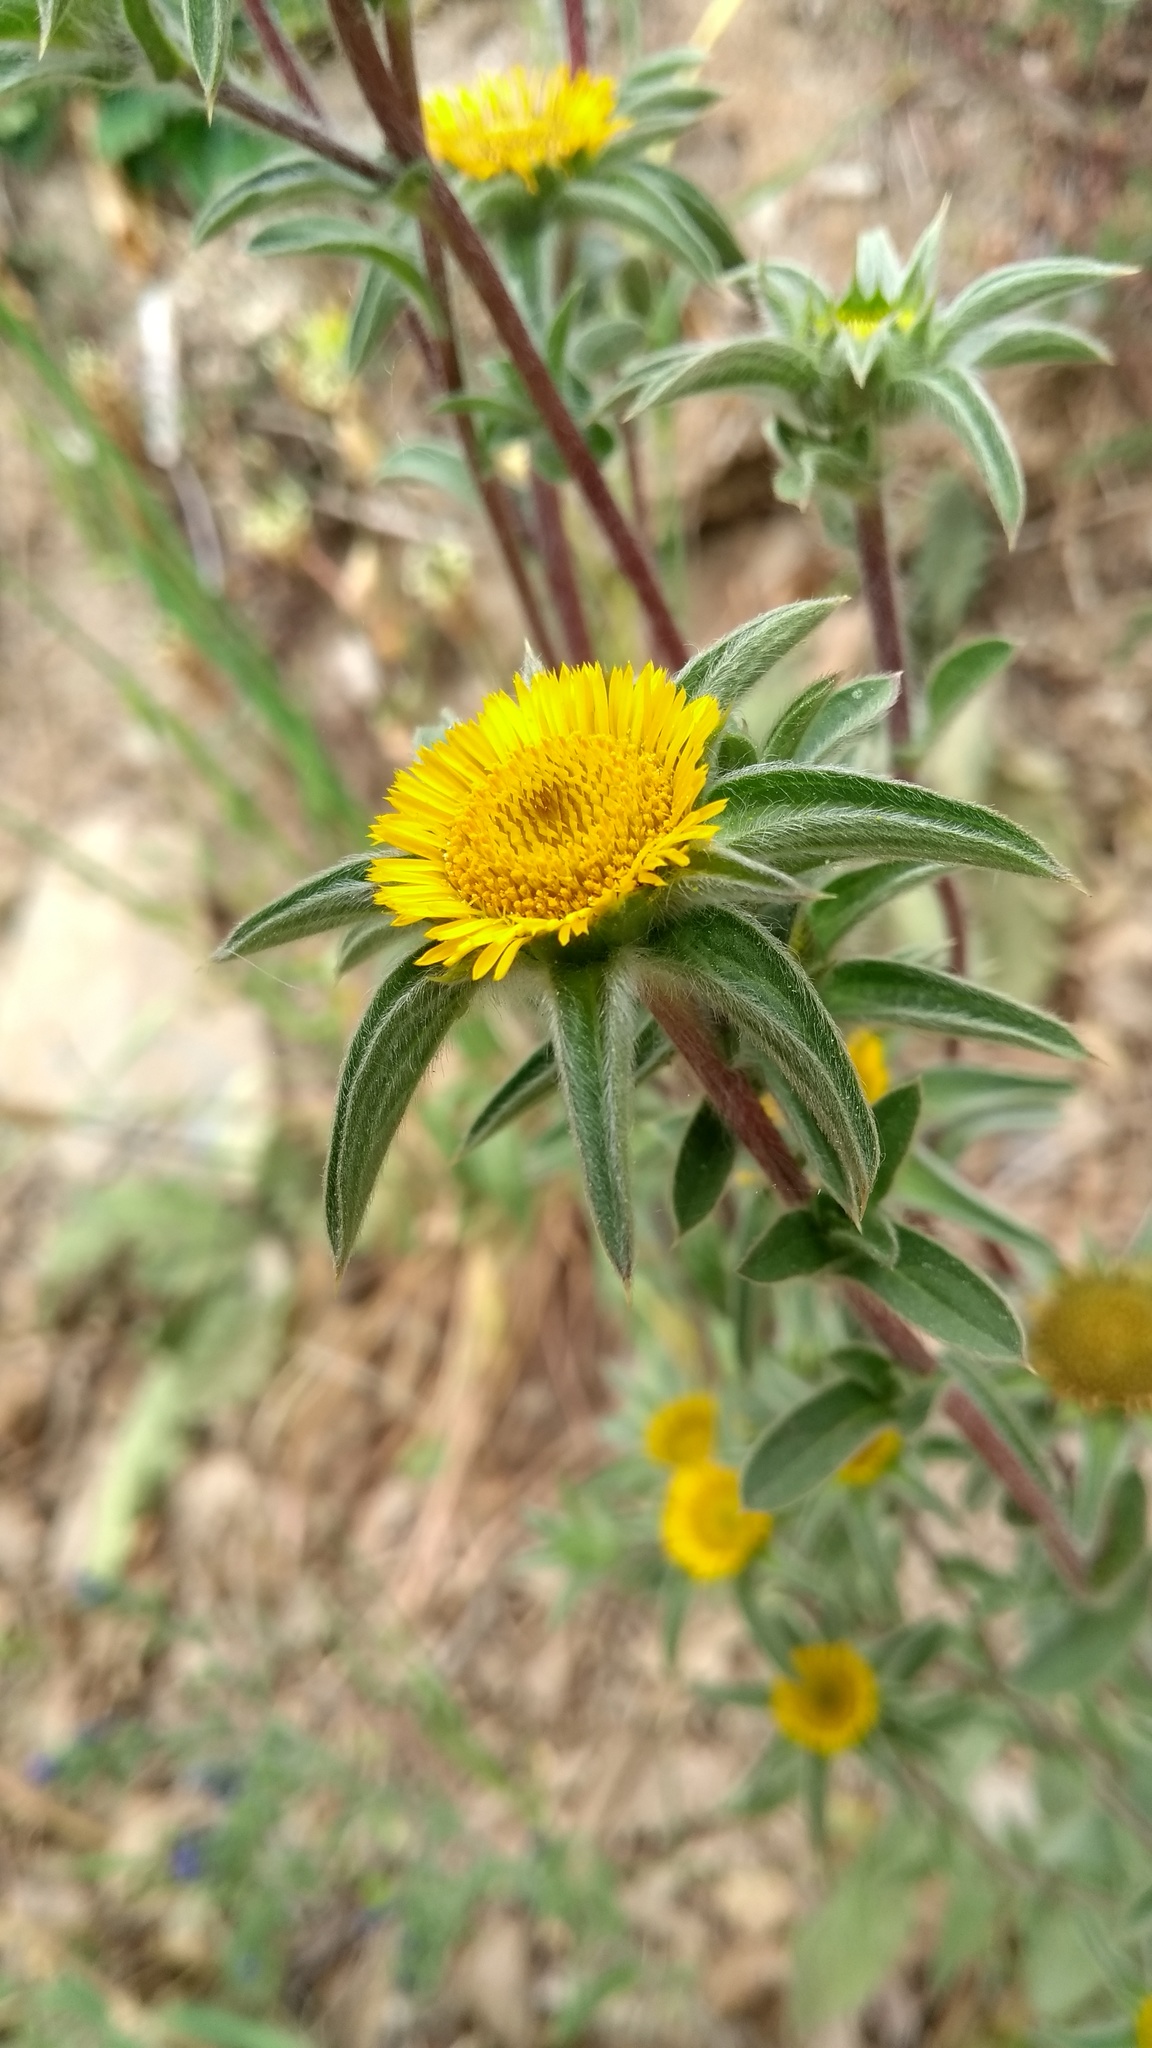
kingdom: Plantae
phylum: Tracheophyta
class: Magnoliopsida
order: Asterales
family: Asteraceae
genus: Pallenis
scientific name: Pallenis spinosa
